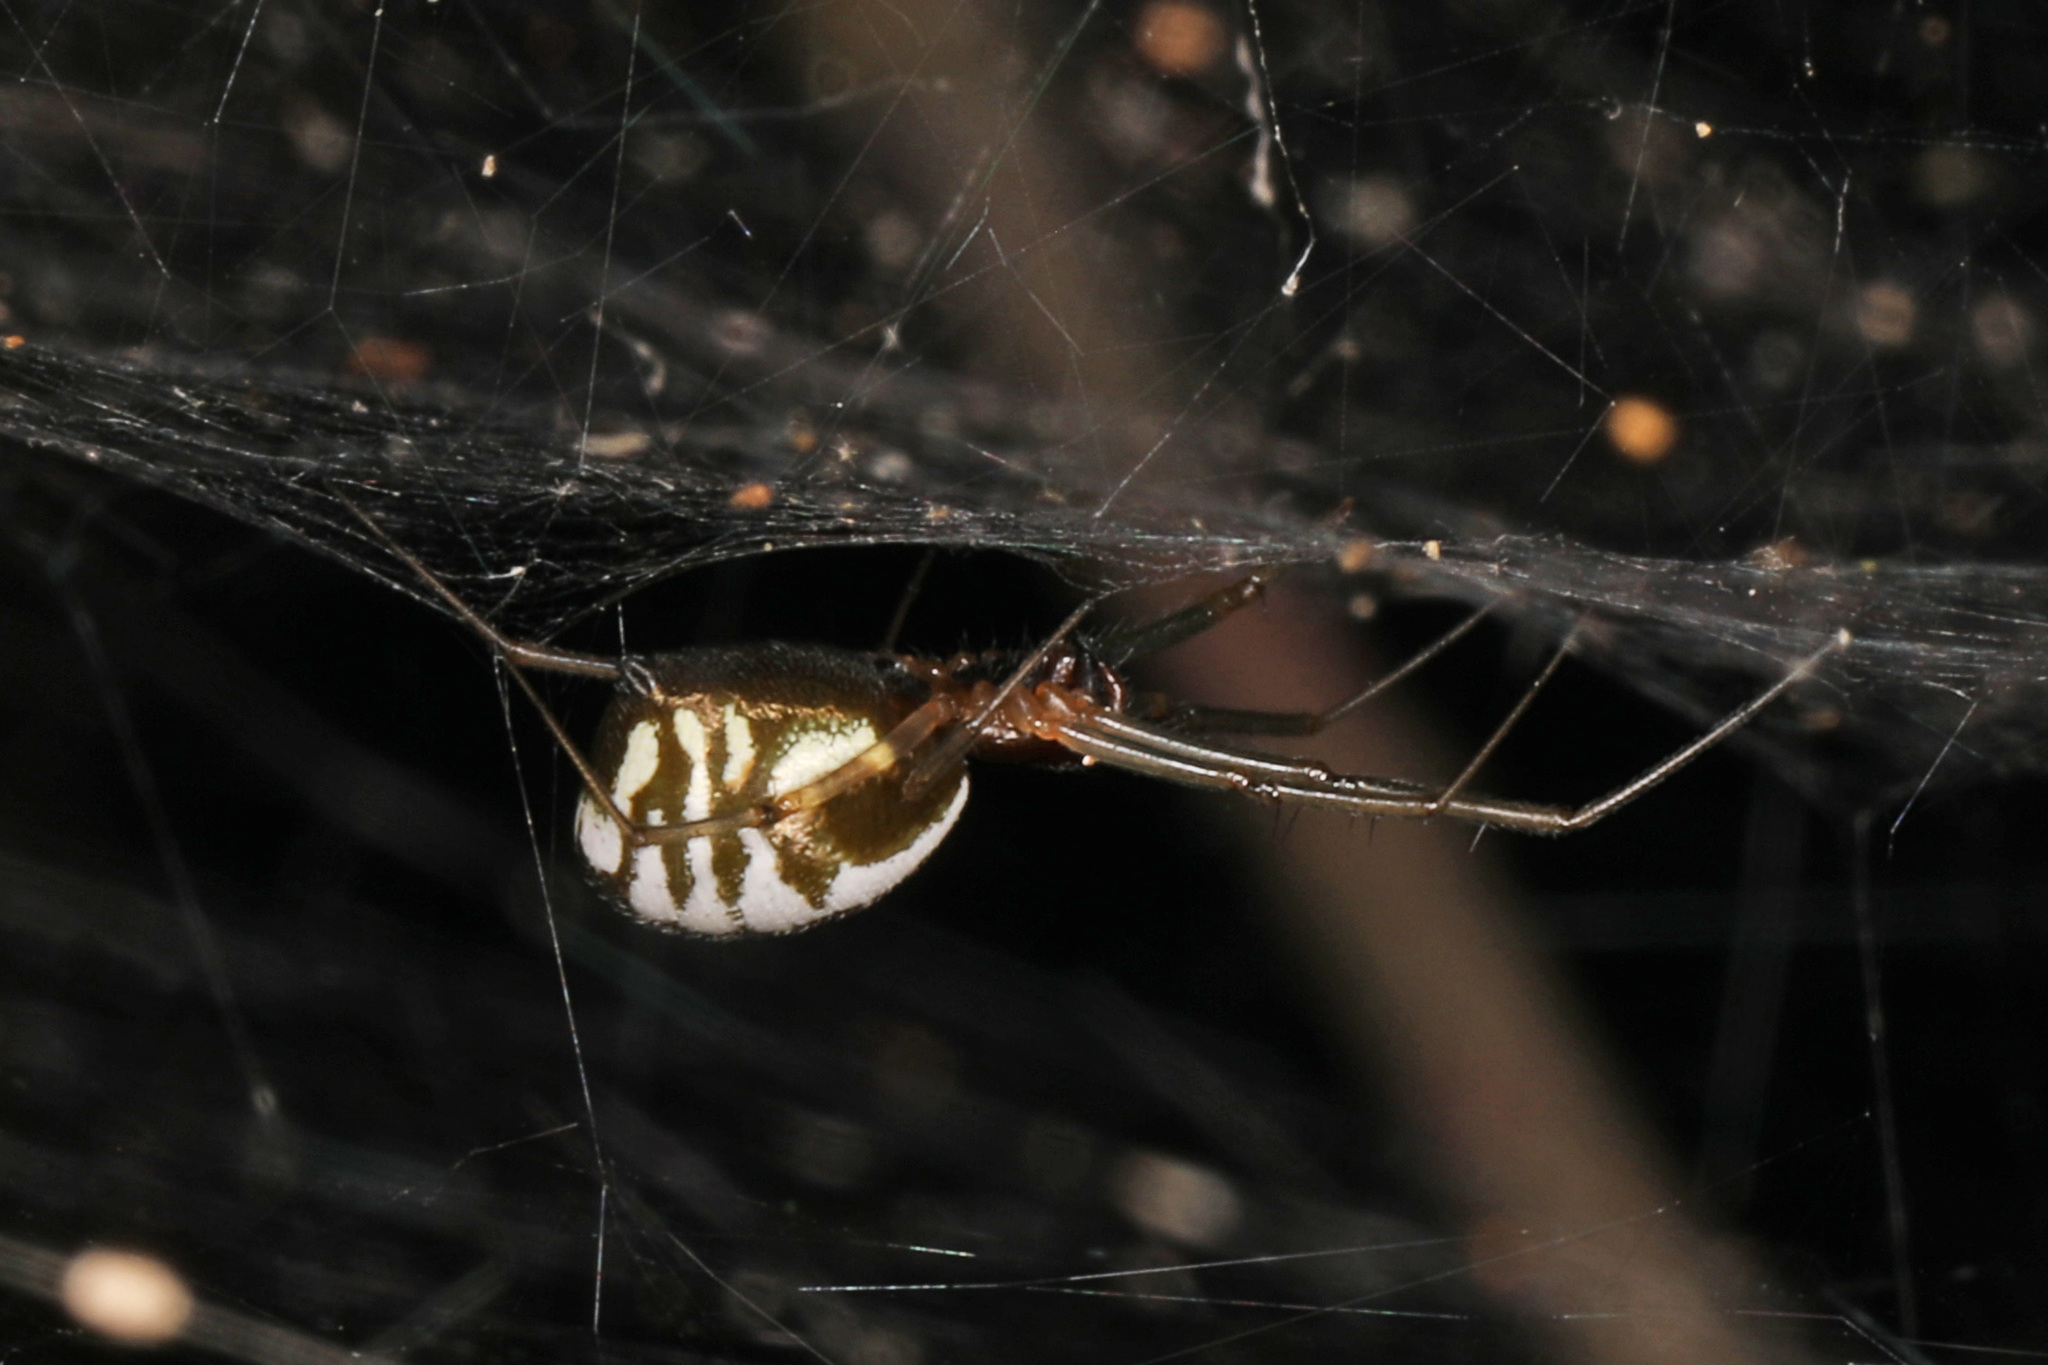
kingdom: Animalia
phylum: Arthropoda
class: Arachnida
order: Araneae
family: Linyphiidae
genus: Frontinella
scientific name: Frontinella pyramitela
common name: Bowl-and-doily spider
